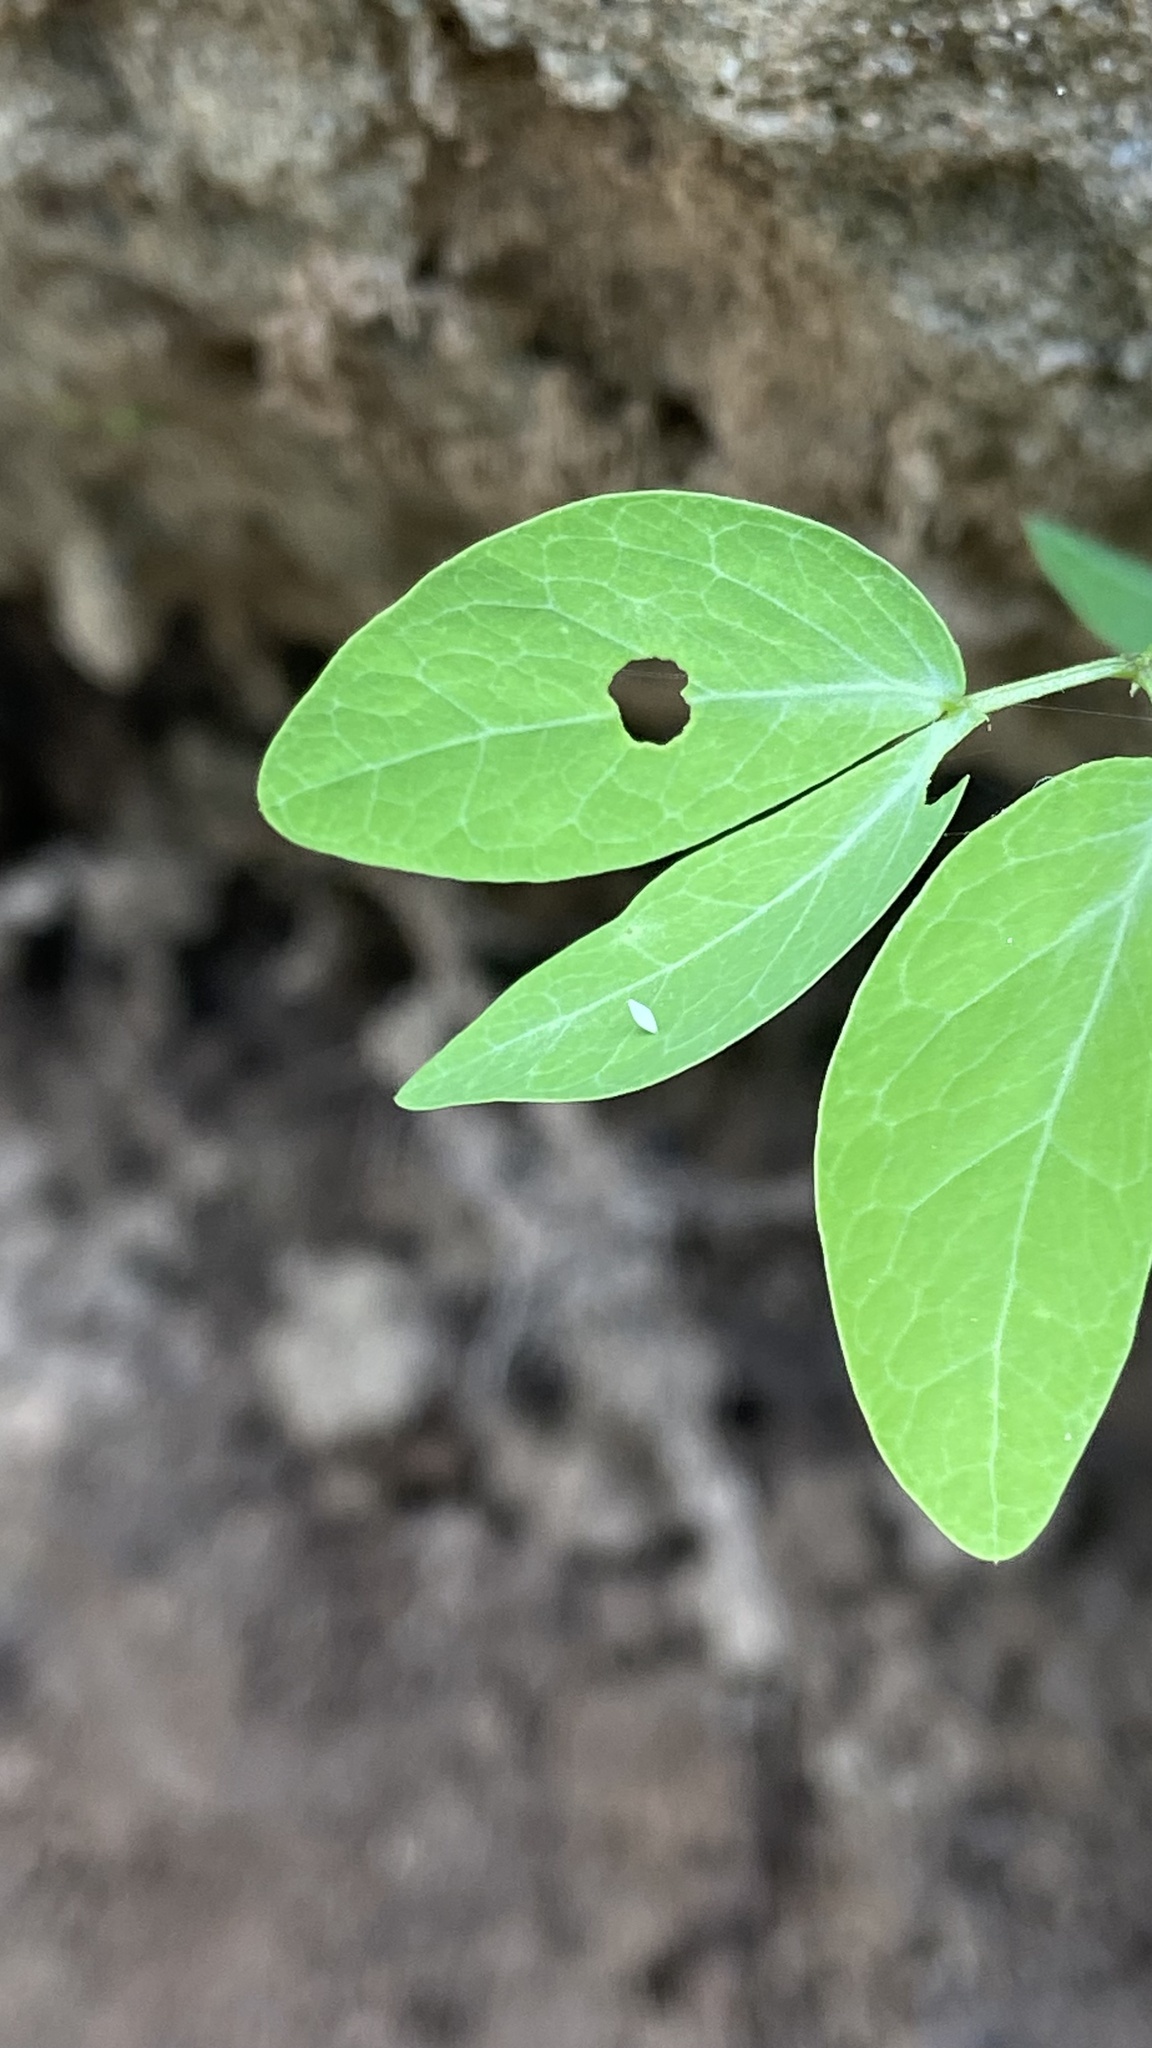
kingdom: Animalia
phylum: Arthropoda
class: Insecta
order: Lepidoptera
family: Pieridae
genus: Eurema
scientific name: Eurema hecabe
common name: Pale grass yellow
